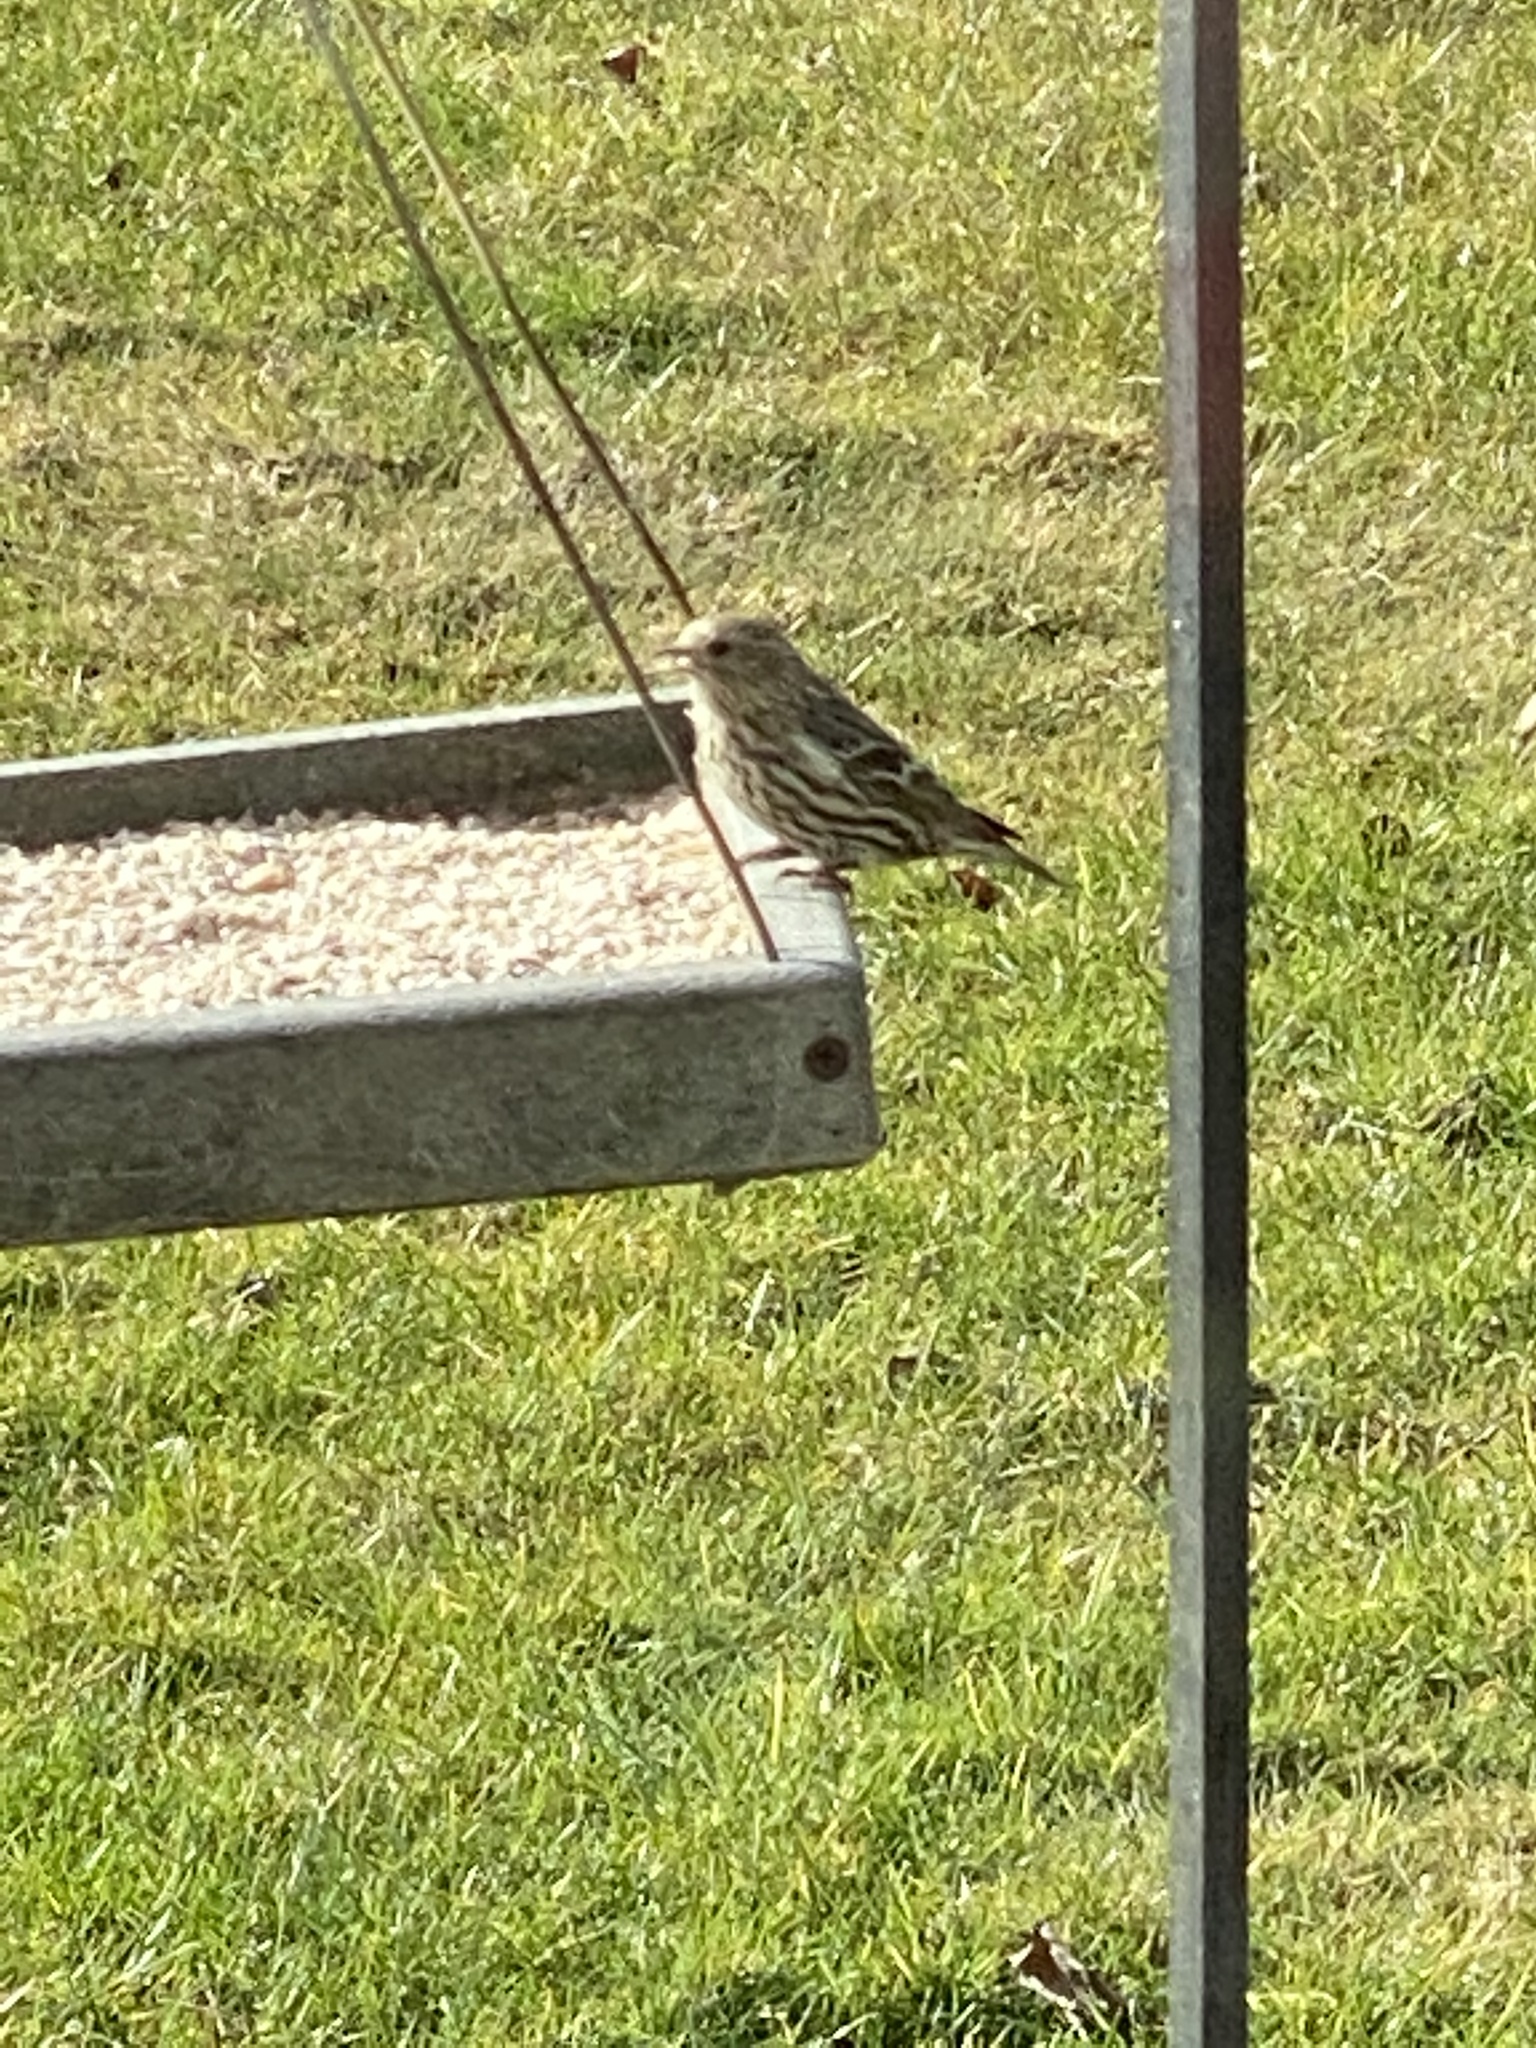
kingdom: Animalia
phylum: Chordata
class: Aves
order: Passeriformes
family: Fringillidae
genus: Spinus
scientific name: Spinus pinus
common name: Pine siskin
